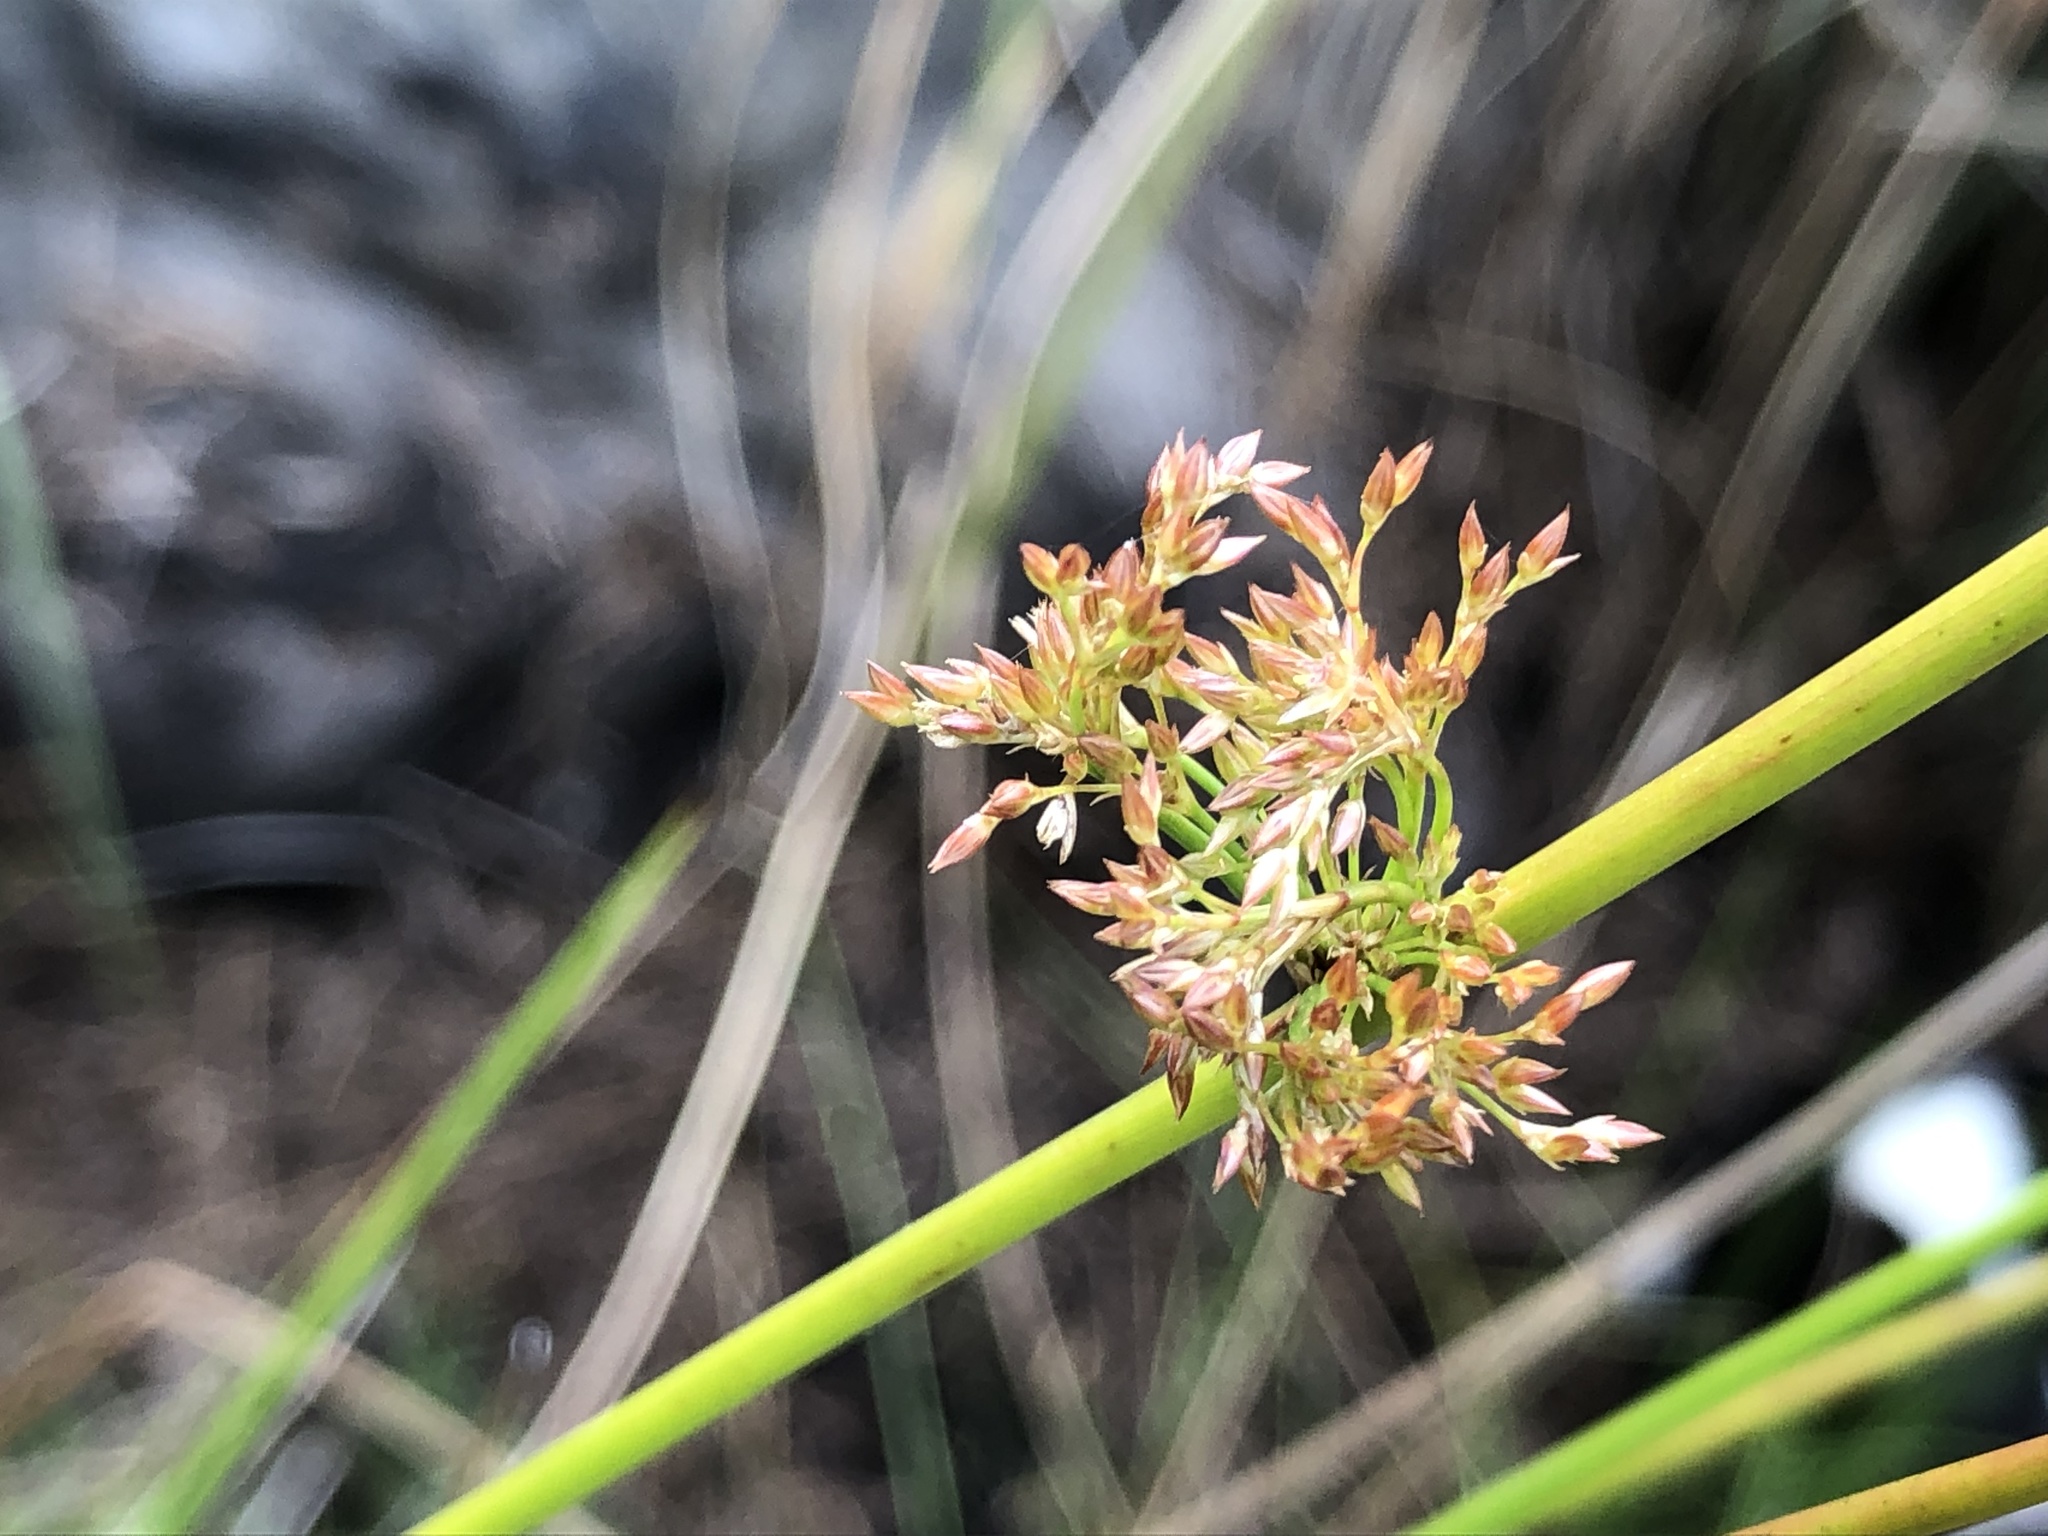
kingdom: Plantae
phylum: Tracheophyta
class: Liliopsida
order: Poales
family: Juncaceae
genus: Juncus
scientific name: Juncus effusus
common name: Soft rush
